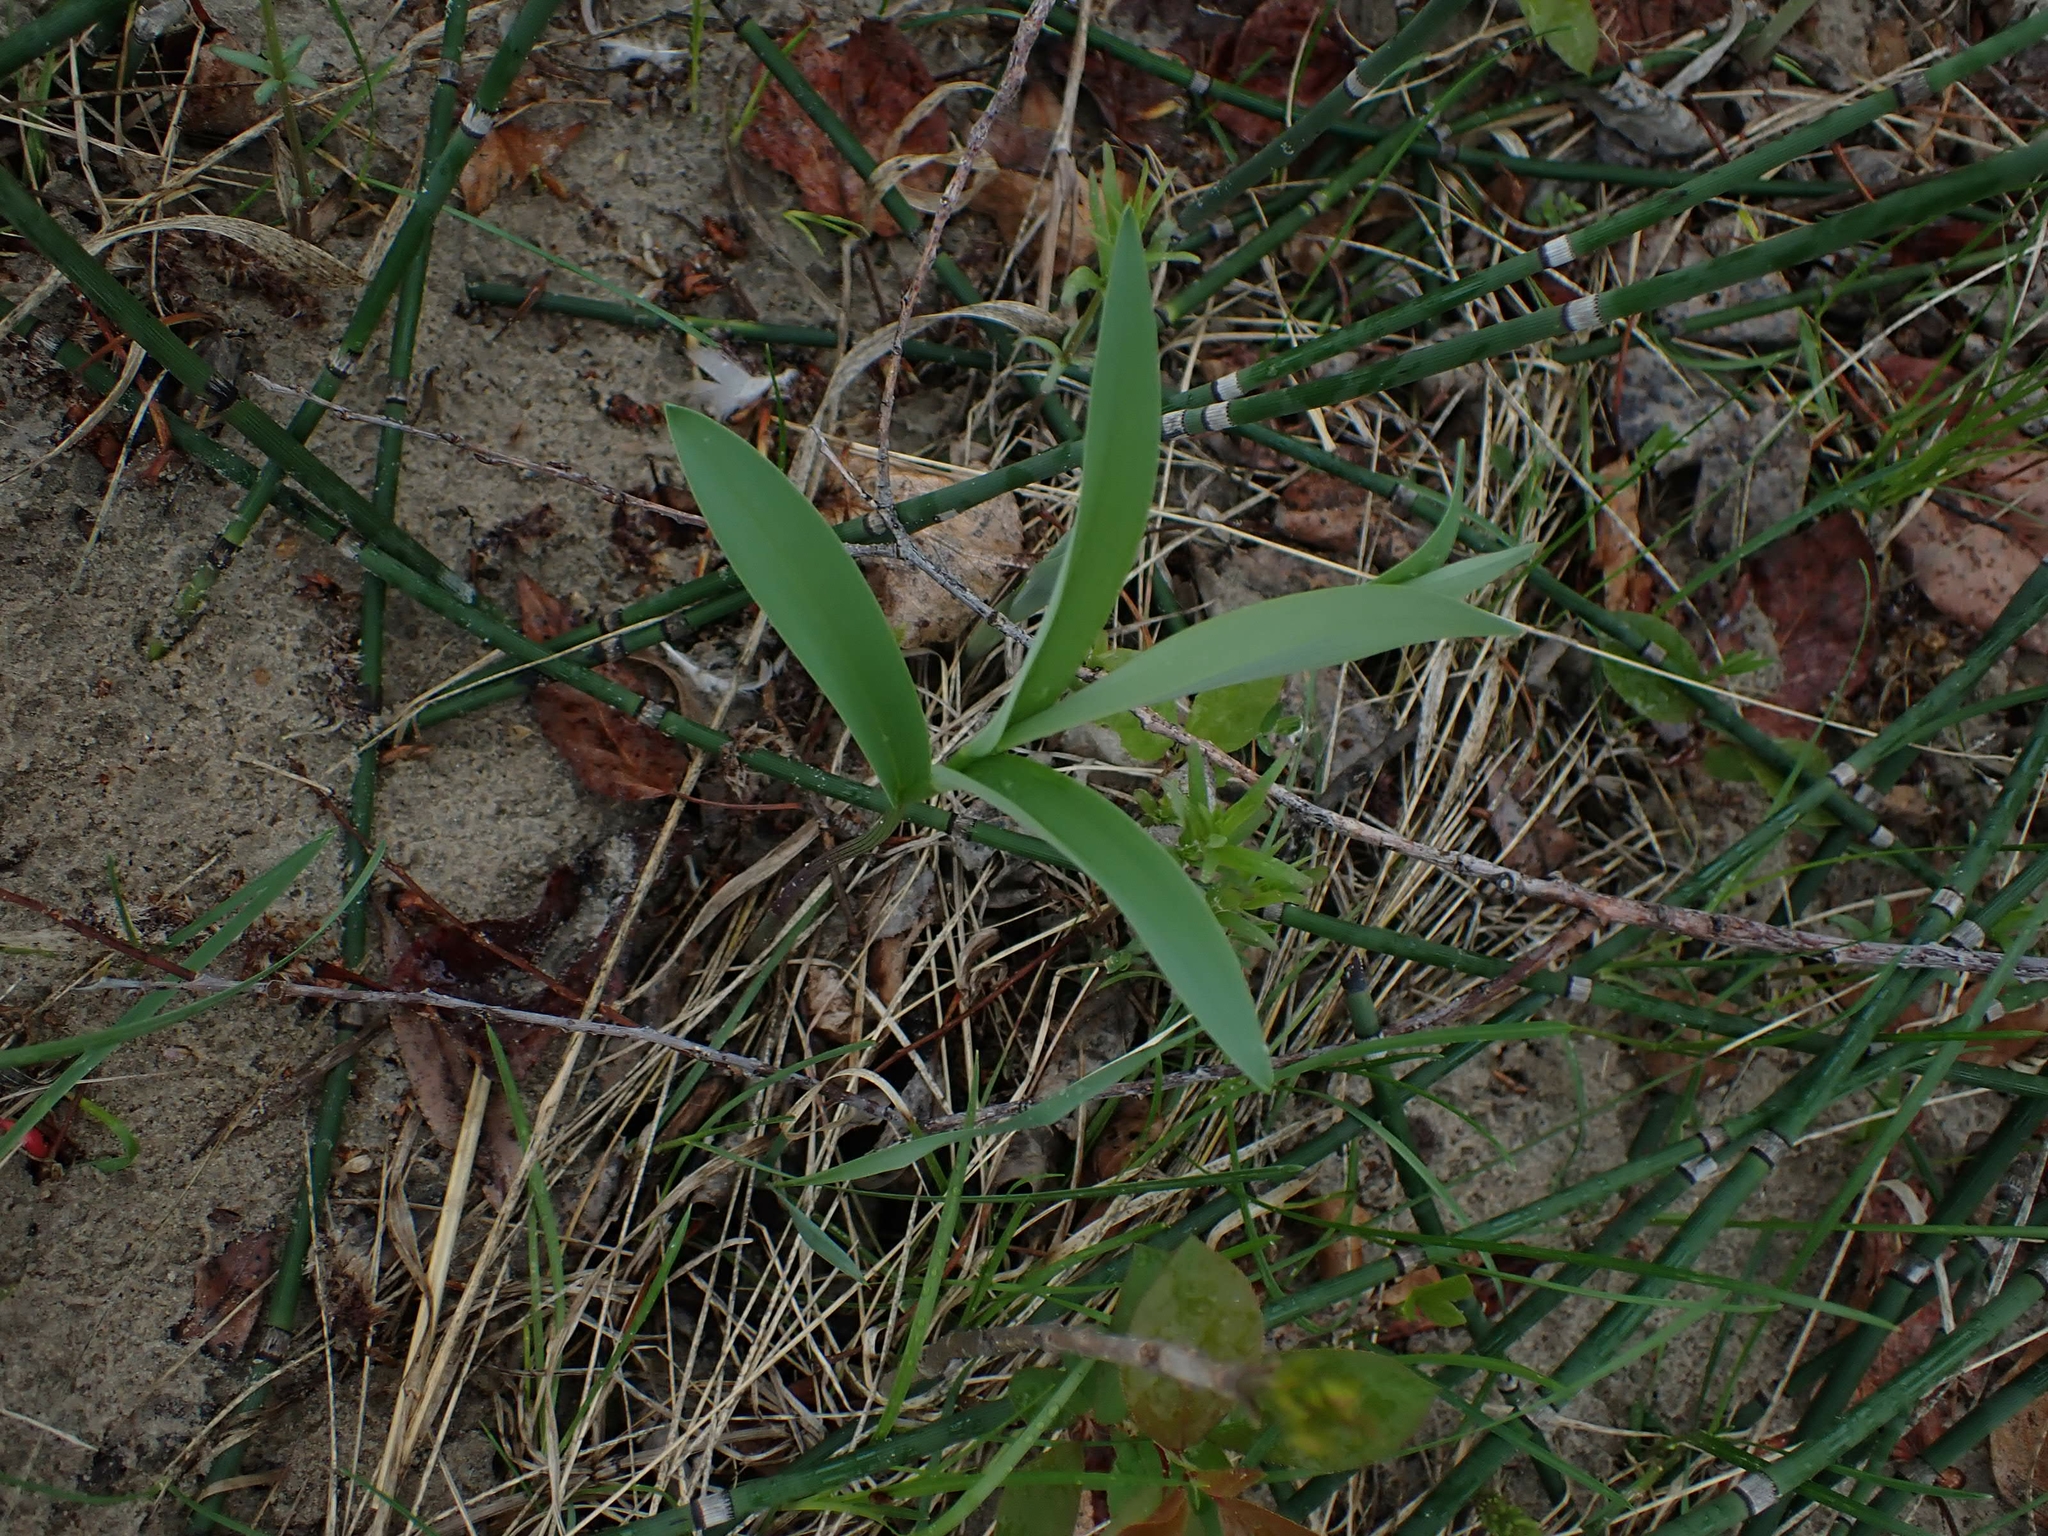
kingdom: Plantae
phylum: Tracheophyta
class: Liliopsida
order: Asparagales
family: Asparagaceae
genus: Maianthemum
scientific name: Maianthemum stellatum
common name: Little false solomon's seal
